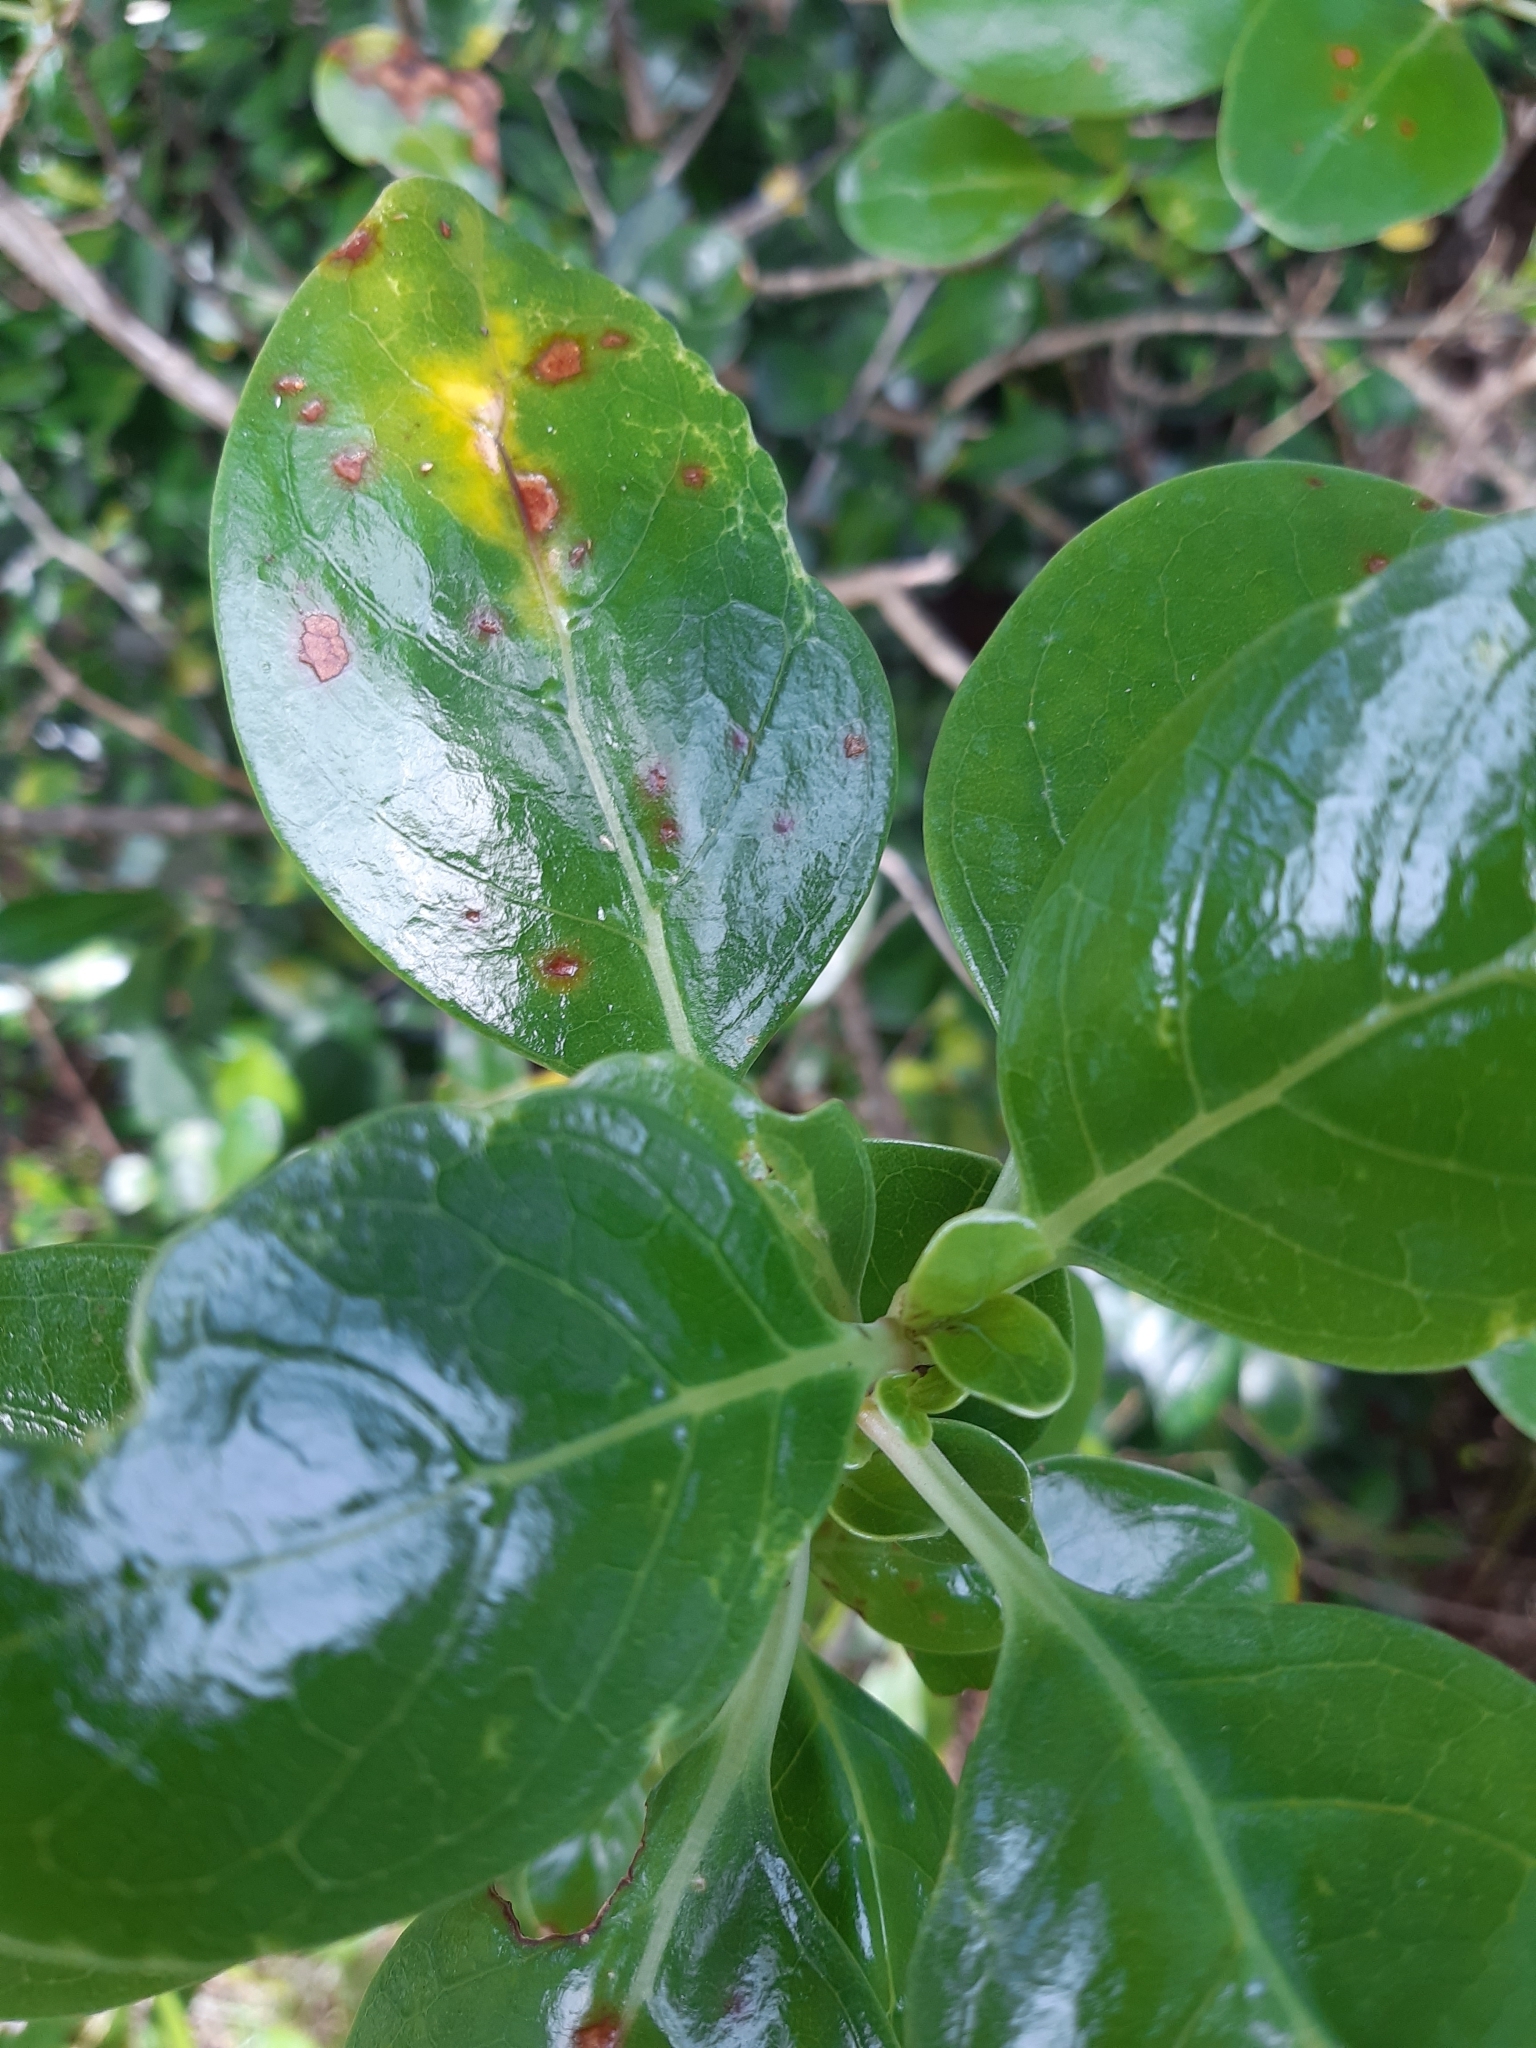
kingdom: Fungi
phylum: Basidiomycota
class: Pucciniomycetes
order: Pucciniales
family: Pucciniaceae
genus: Puccinia
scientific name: Puccinia coprosmae
